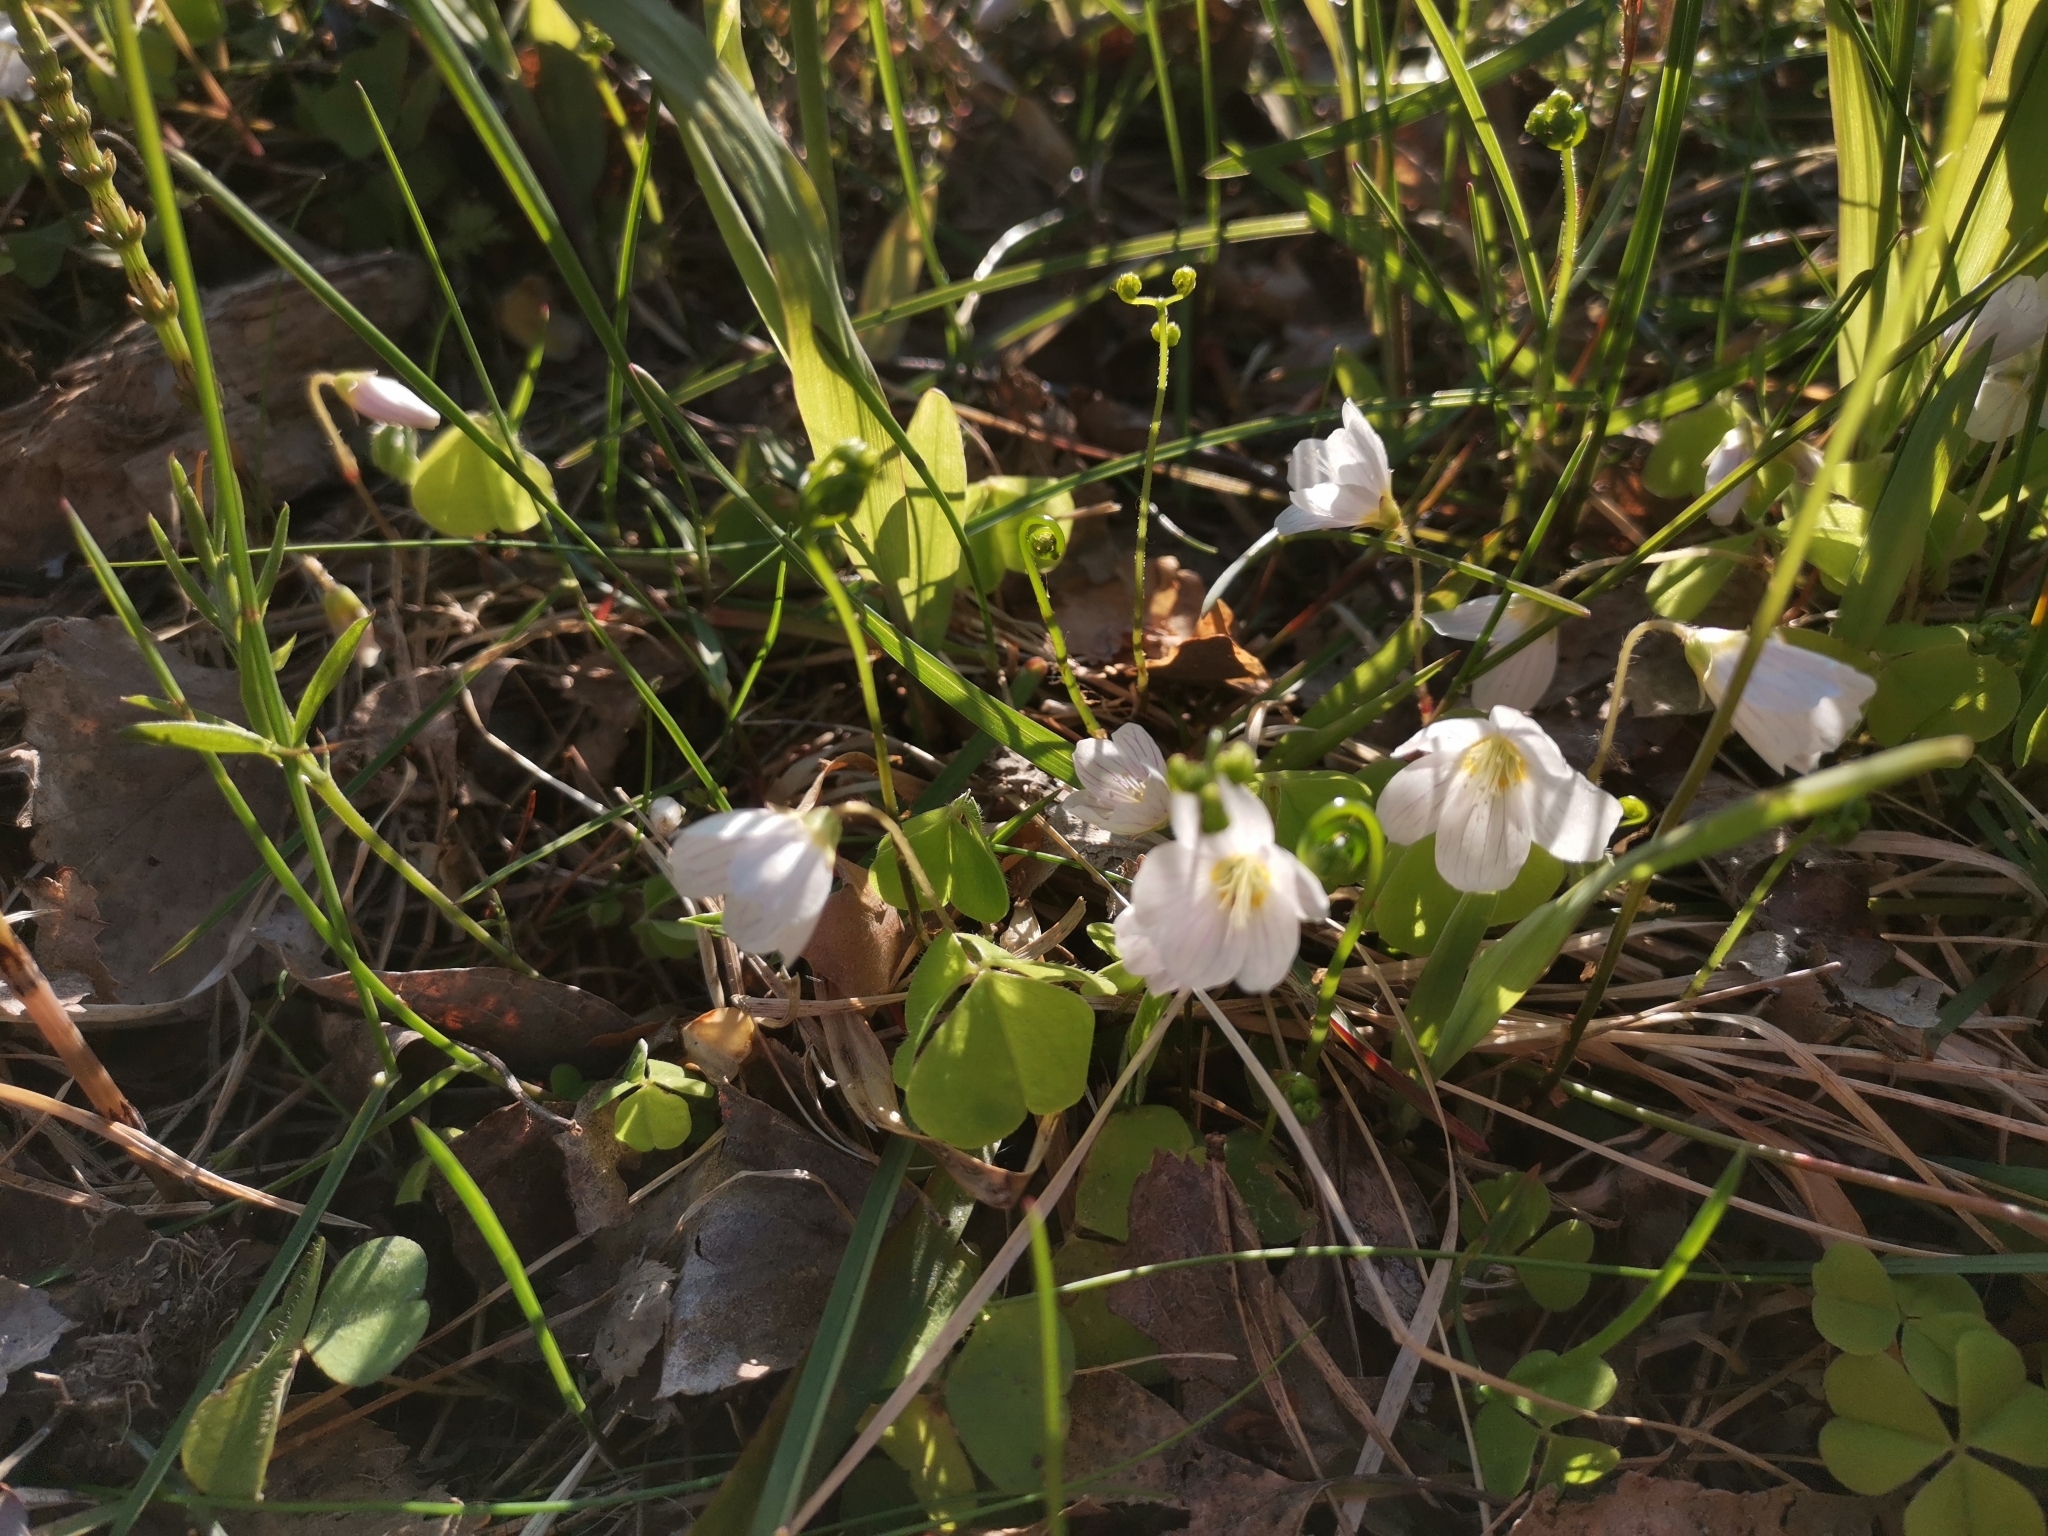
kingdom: Plantae
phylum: Tracheophyta
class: Magnoliopsida
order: Oxalidales
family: Oxalidaceae
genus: Oxalis
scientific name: Oxalis acetosella
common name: Wood-sorrel
